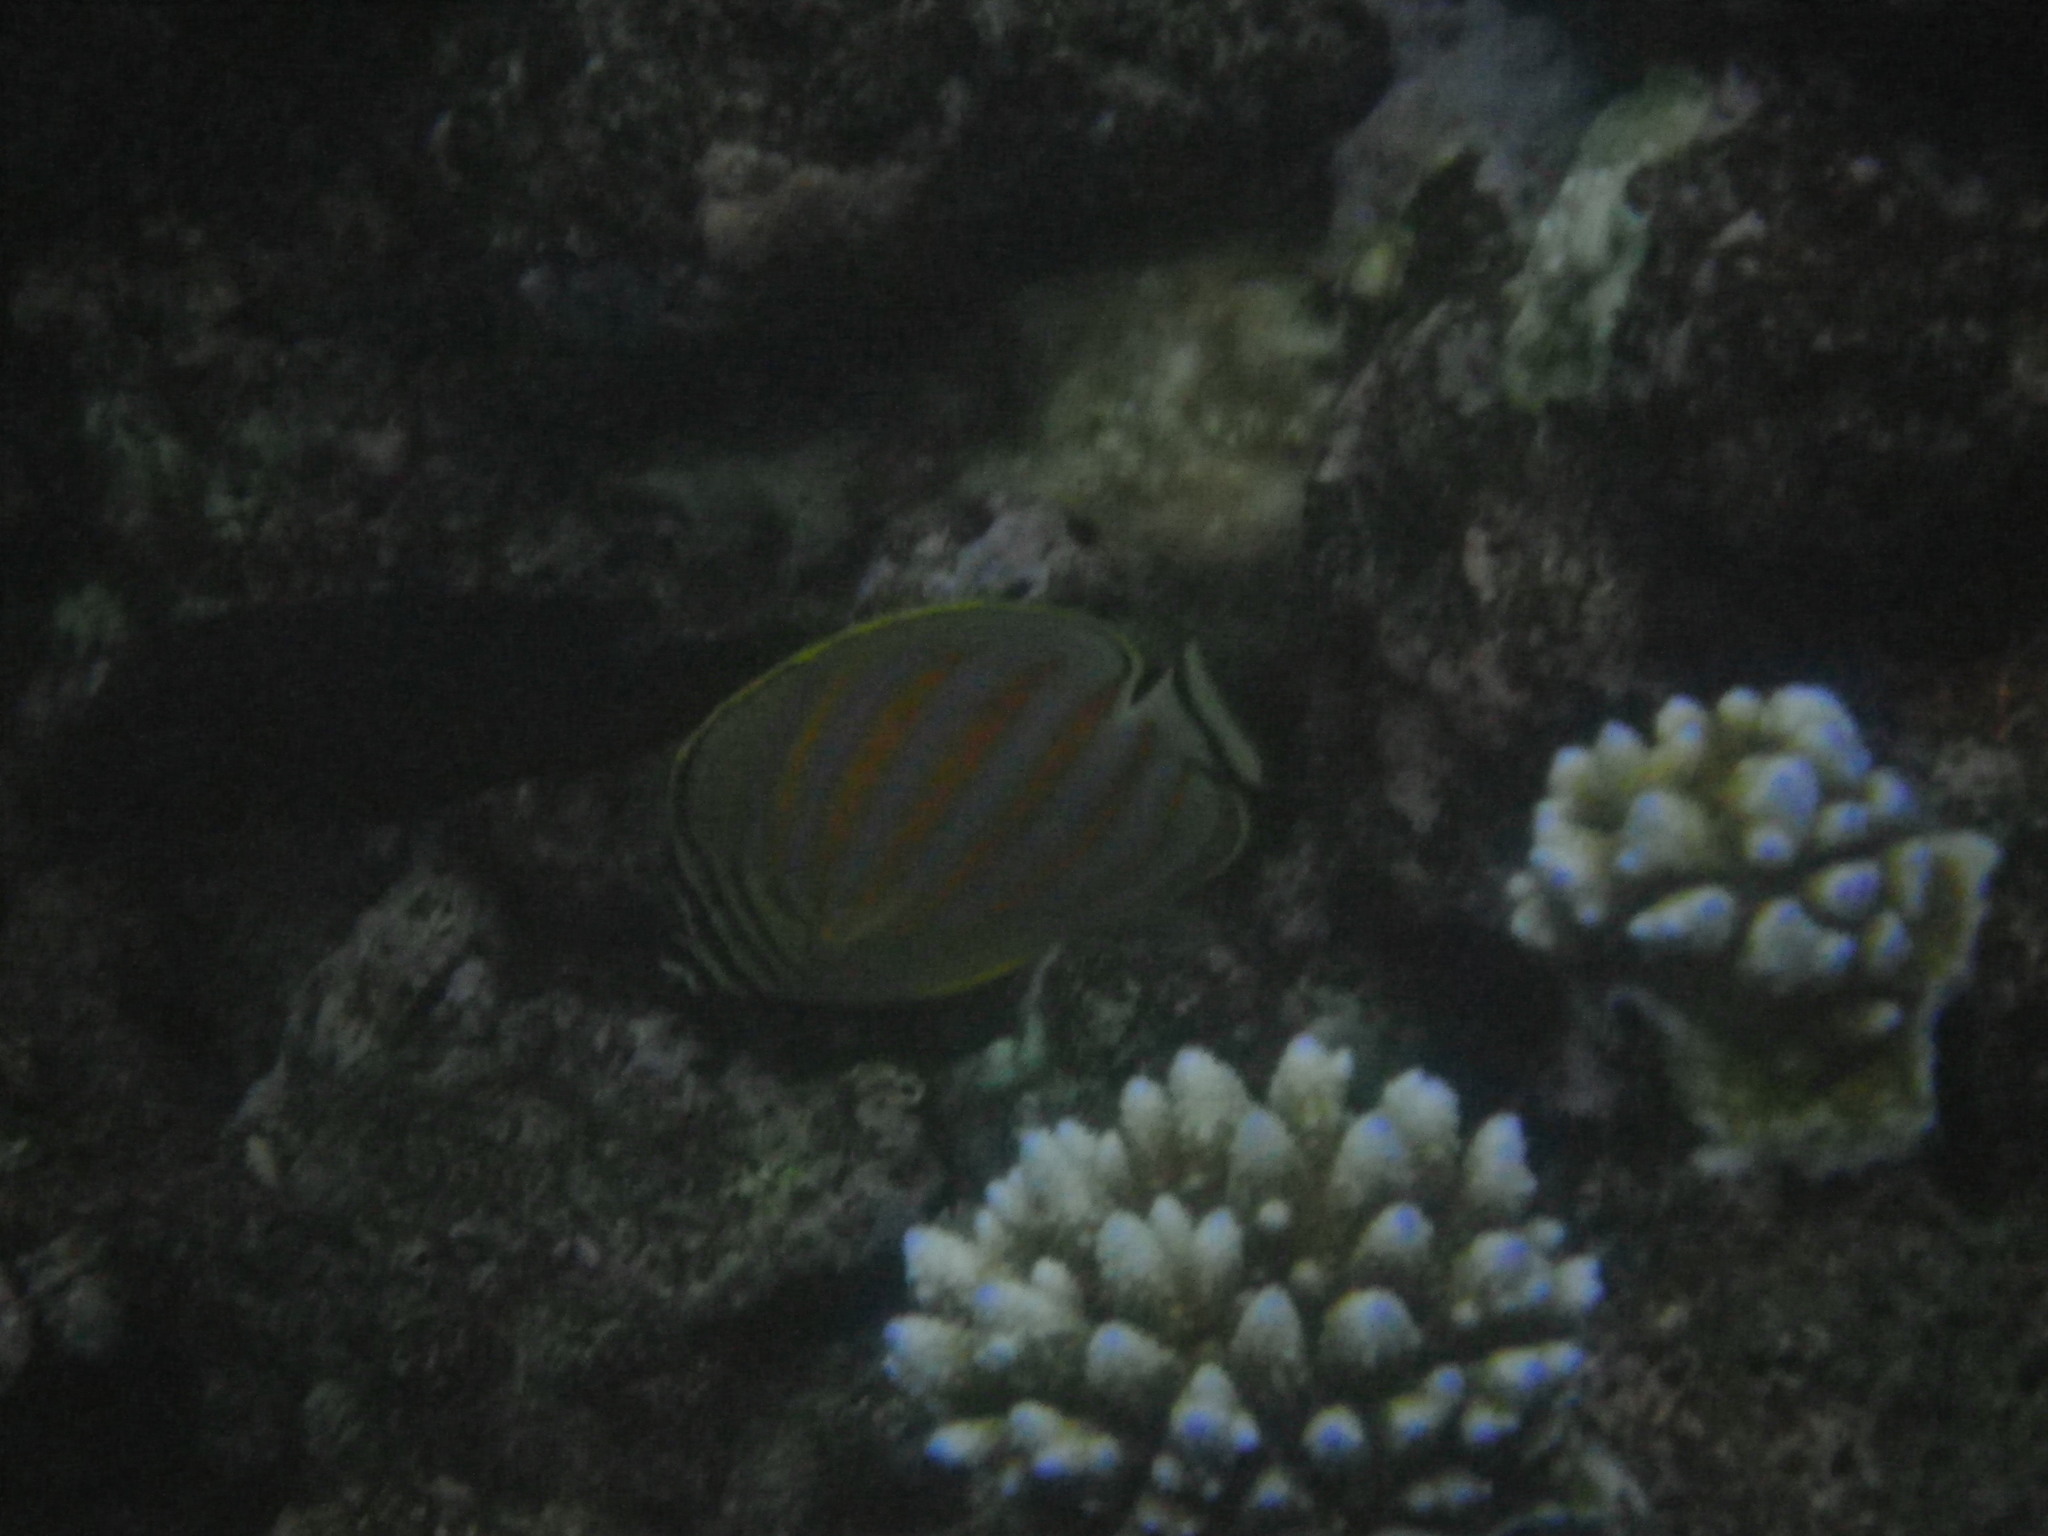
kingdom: Animalia
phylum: Chordata
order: Perciformes
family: Chaetodontidae
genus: Chaetodon
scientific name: Chaetodon ornatissimus
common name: Ornate butterflyfish
